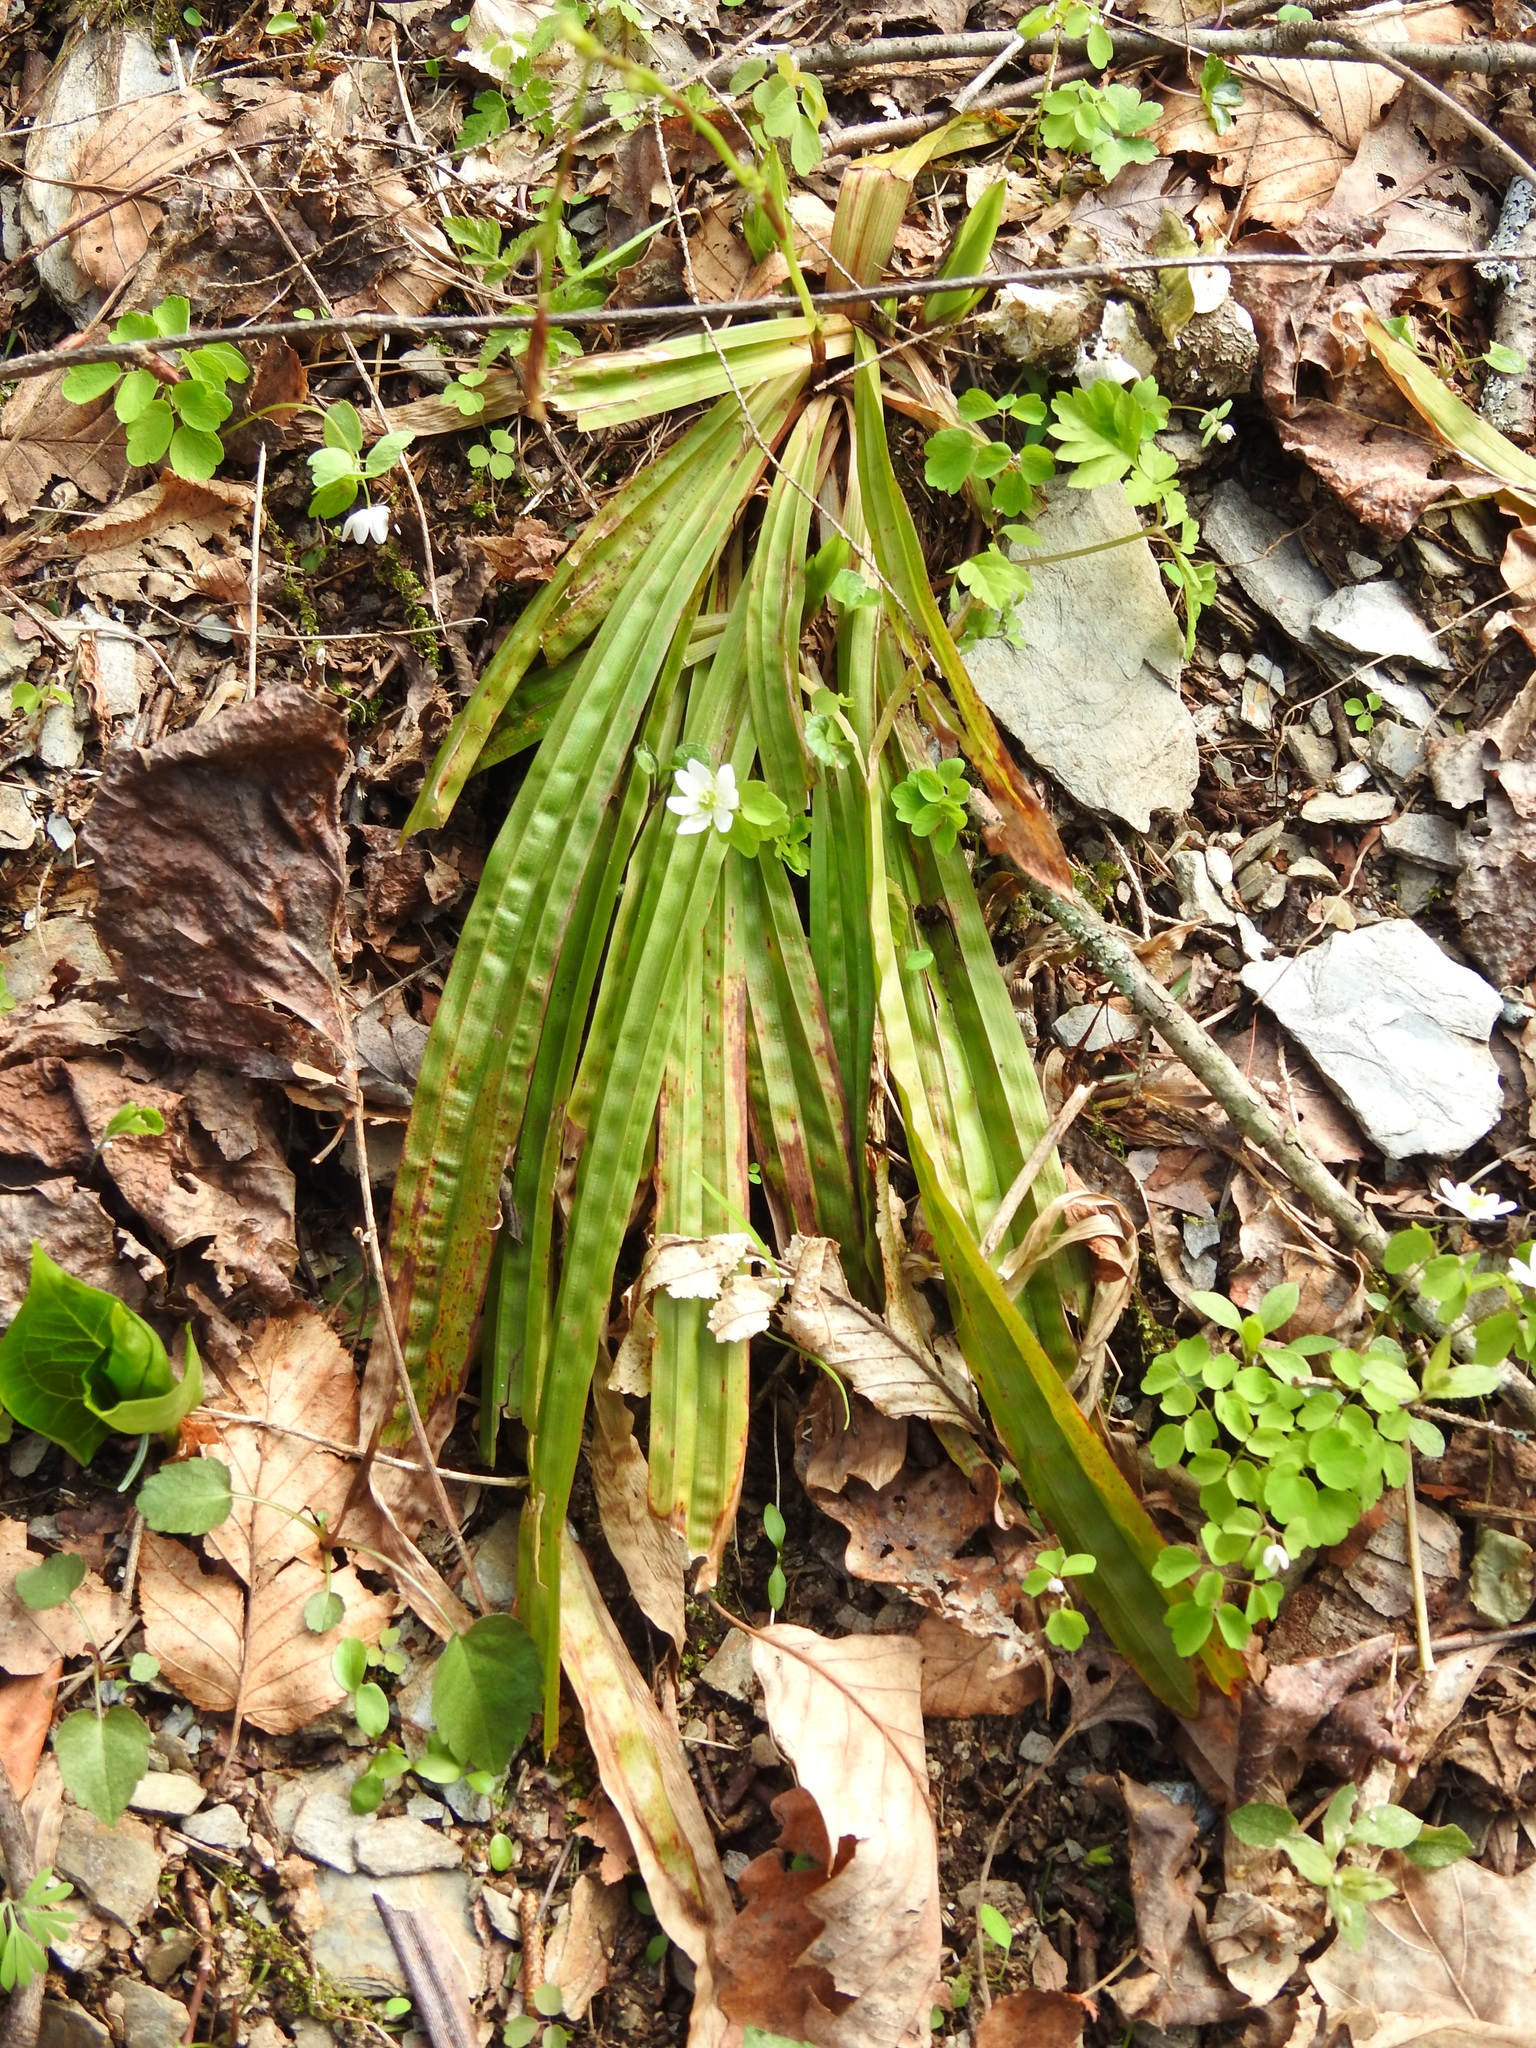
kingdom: Plantae
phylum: Tracheophyta
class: Liliopsida
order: Poales
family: Cyperaceae
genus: Carex
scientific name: Carex plantaginea
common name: Plantain-leaved sedge
